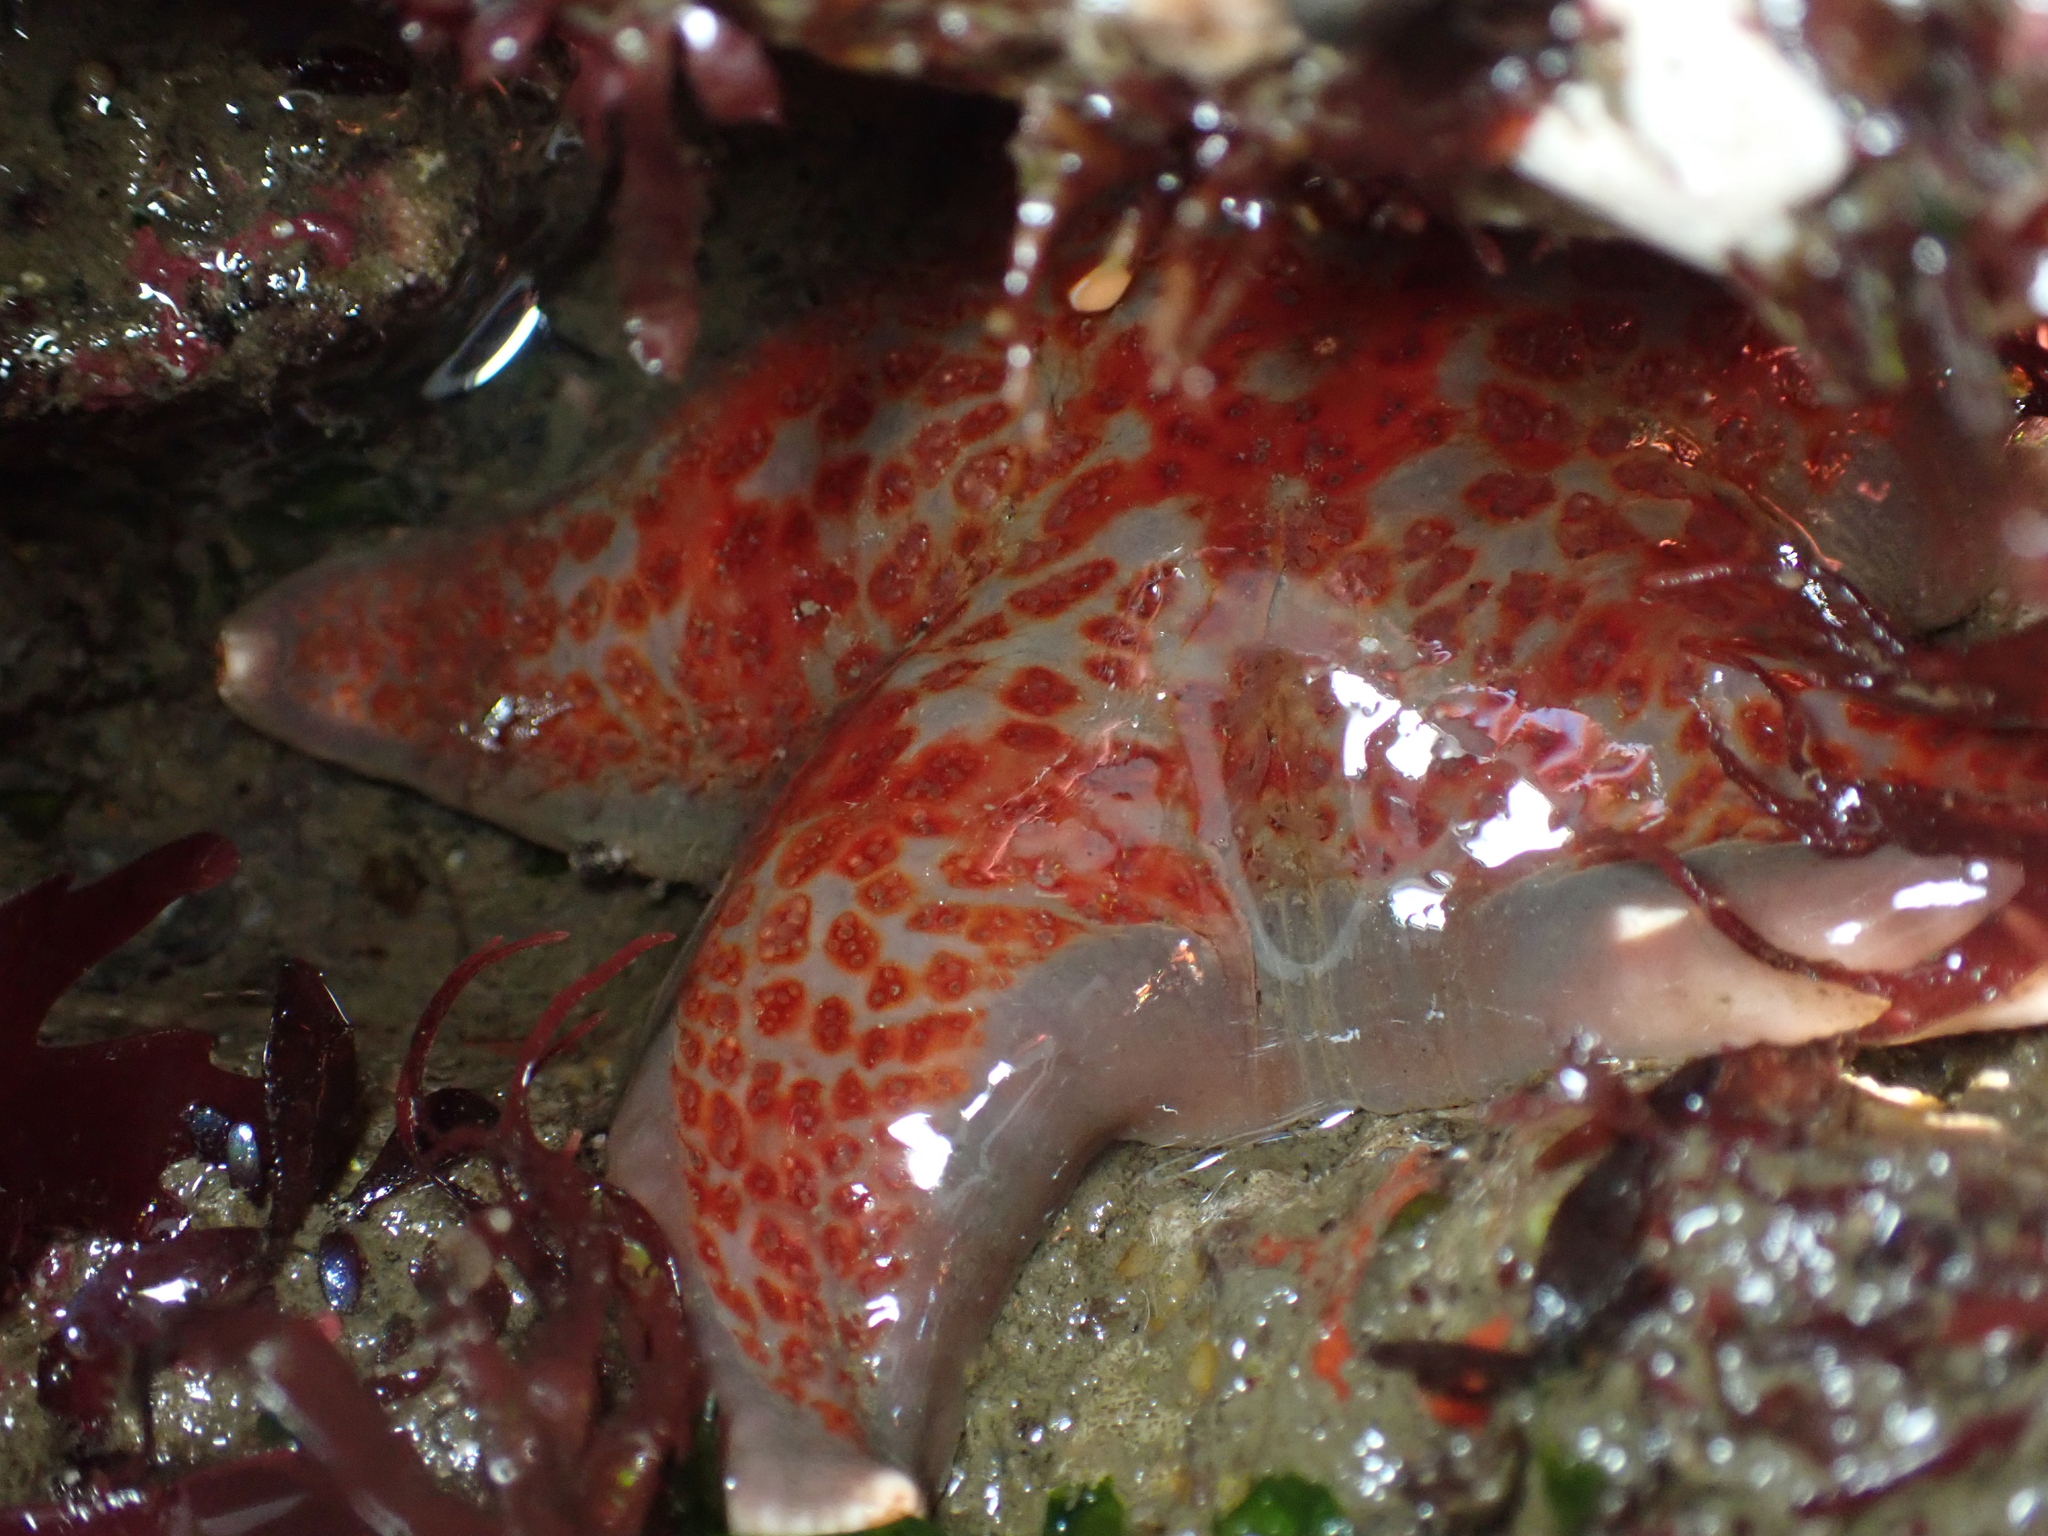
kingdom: Animalia
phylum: Echinodermata
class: Asteroidea
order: Valvatida
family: Asteropseidae
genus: Dermasterias
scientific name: Dermasterias imbricata
